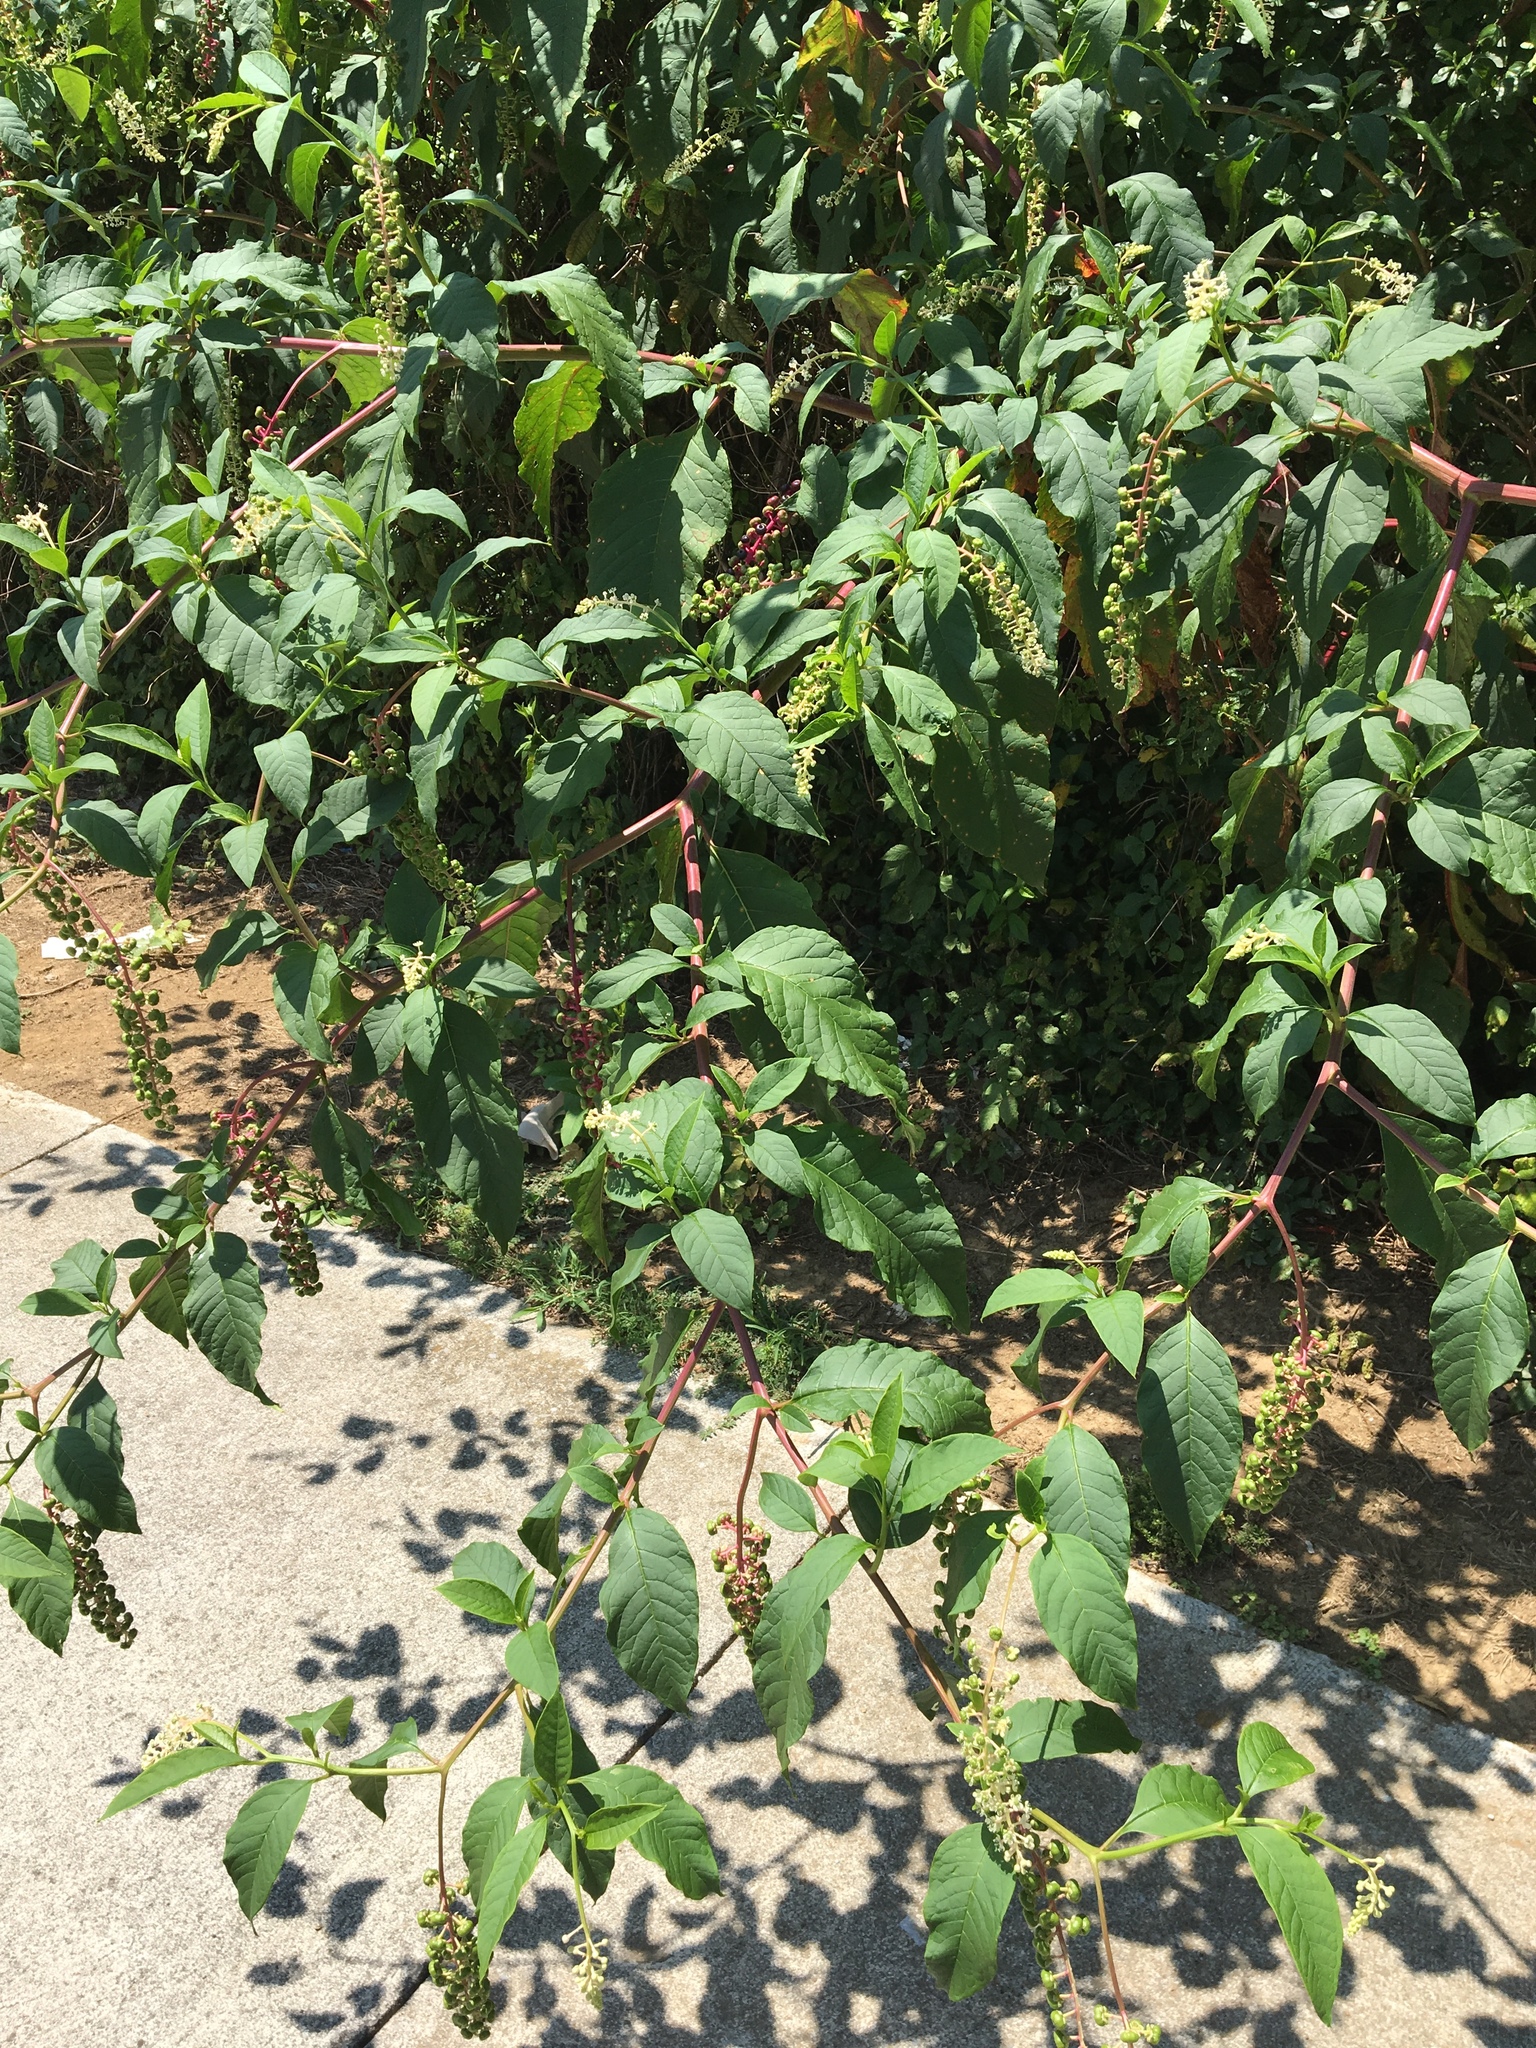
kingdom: Plantae
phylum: Tracheophyta
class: Magnoliopsida
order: Caryophyllales
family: Phytolaccaceae
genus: Phytolacca
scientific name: Phytolacca americana
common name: American pokeweed
